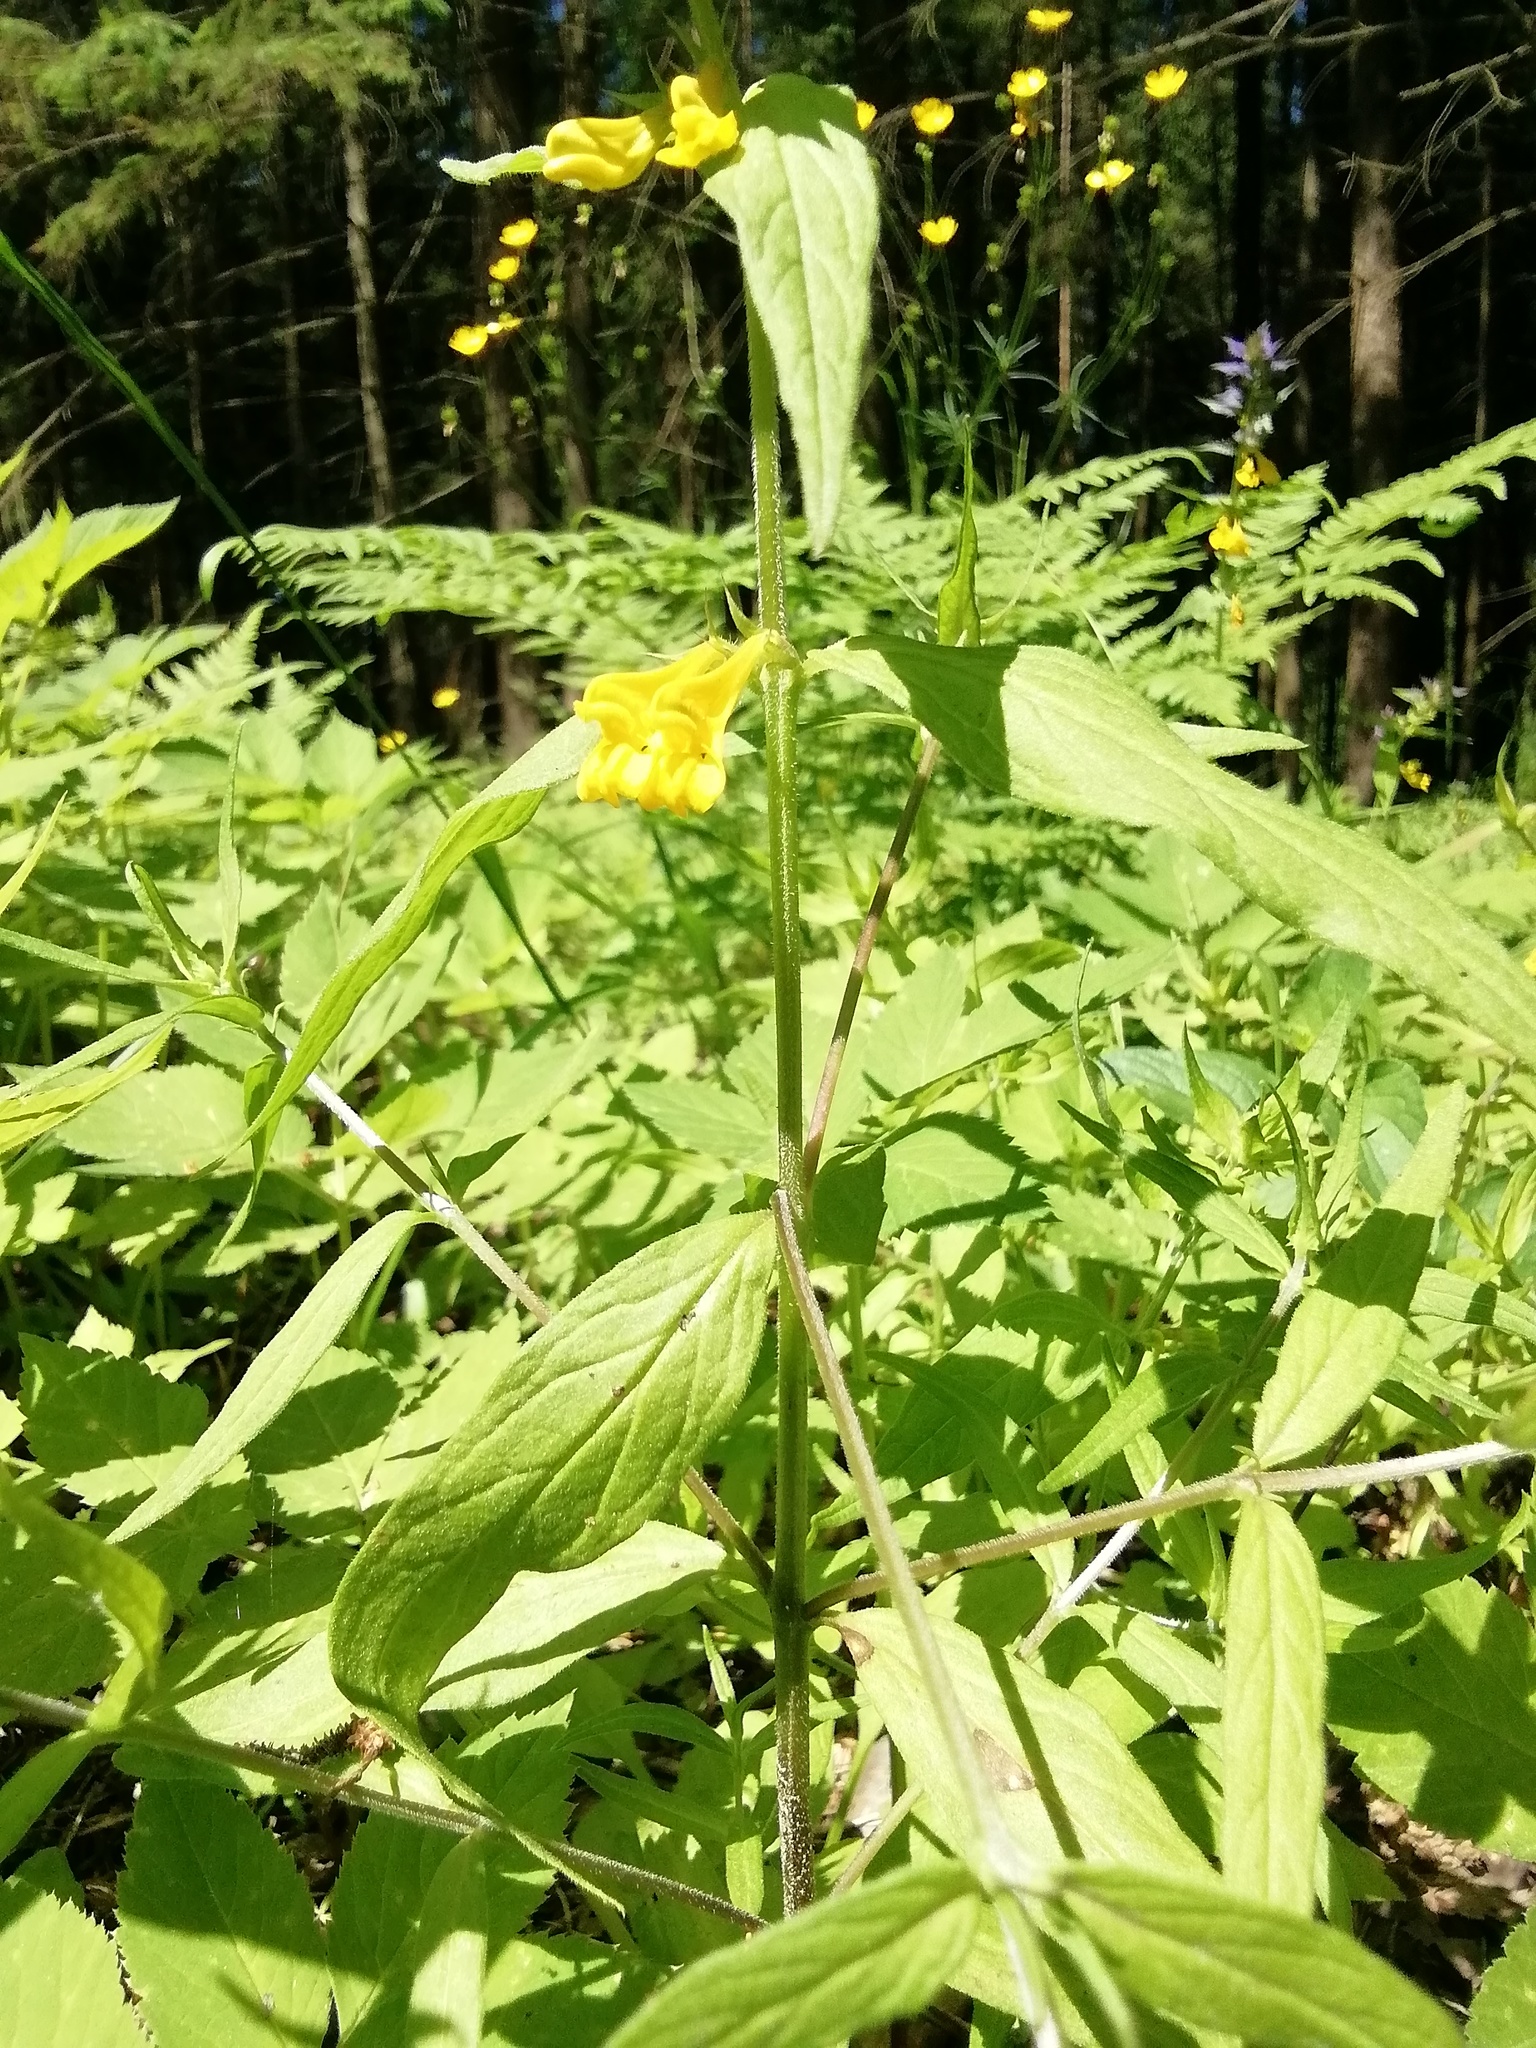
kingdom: Plantae
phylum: Tracheophyta
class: Magnoliopsida
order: Lamiales
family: Orobanchaceae
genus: Melampyrum
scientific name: Melampyrum nemorosum
